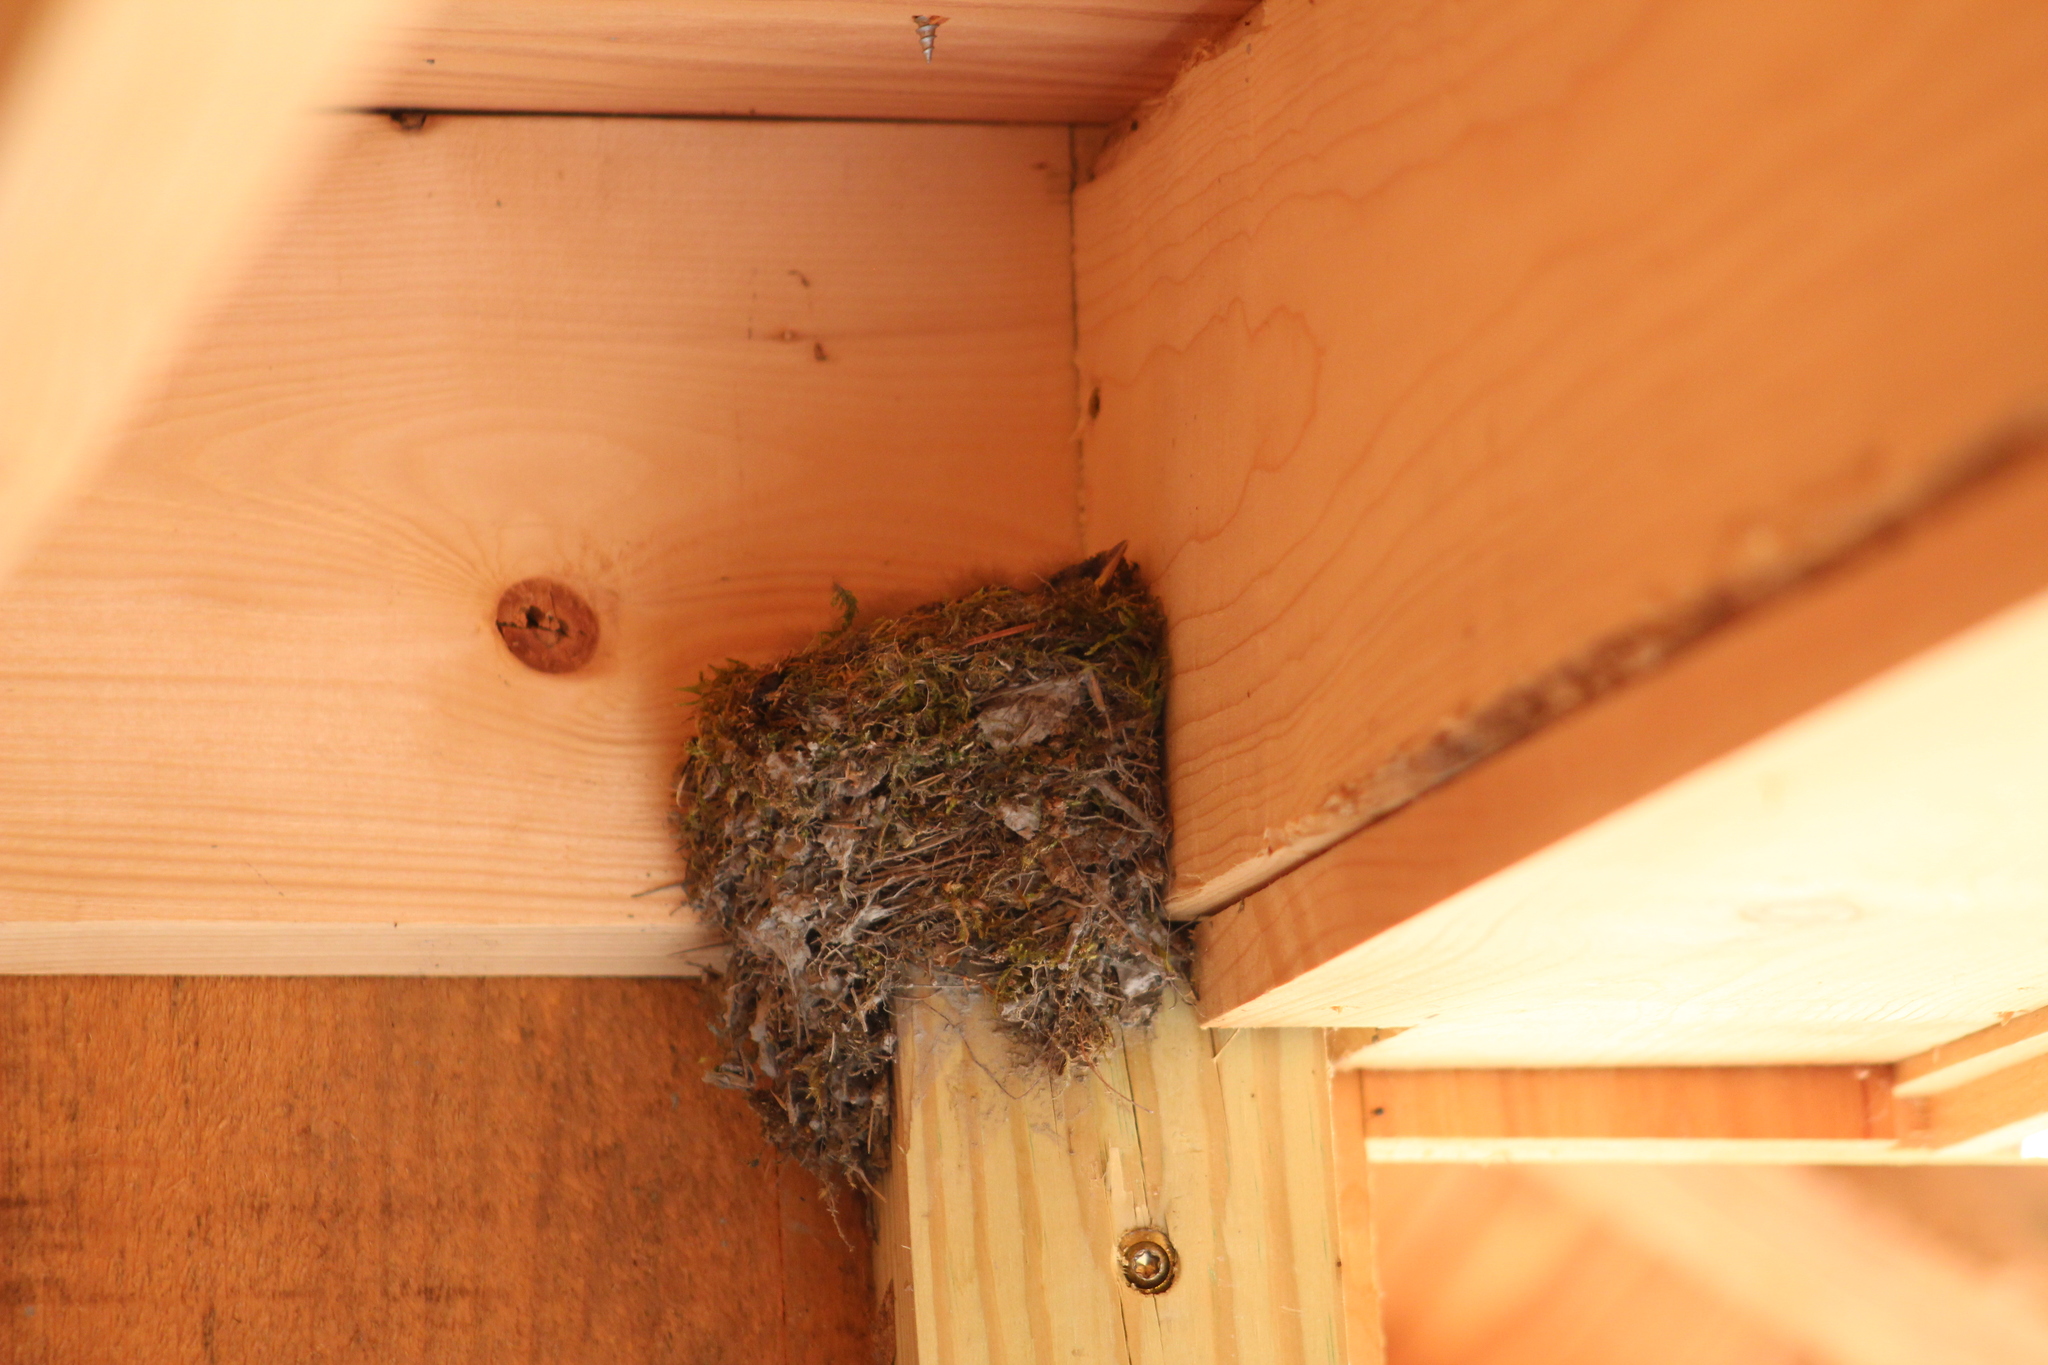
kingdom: Animalia
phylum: Chordata
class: Aves
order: Passeriformes
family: Tyrannidae
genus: Sayornis
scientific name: Sayornis phoebe
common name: Eastern phoebe
